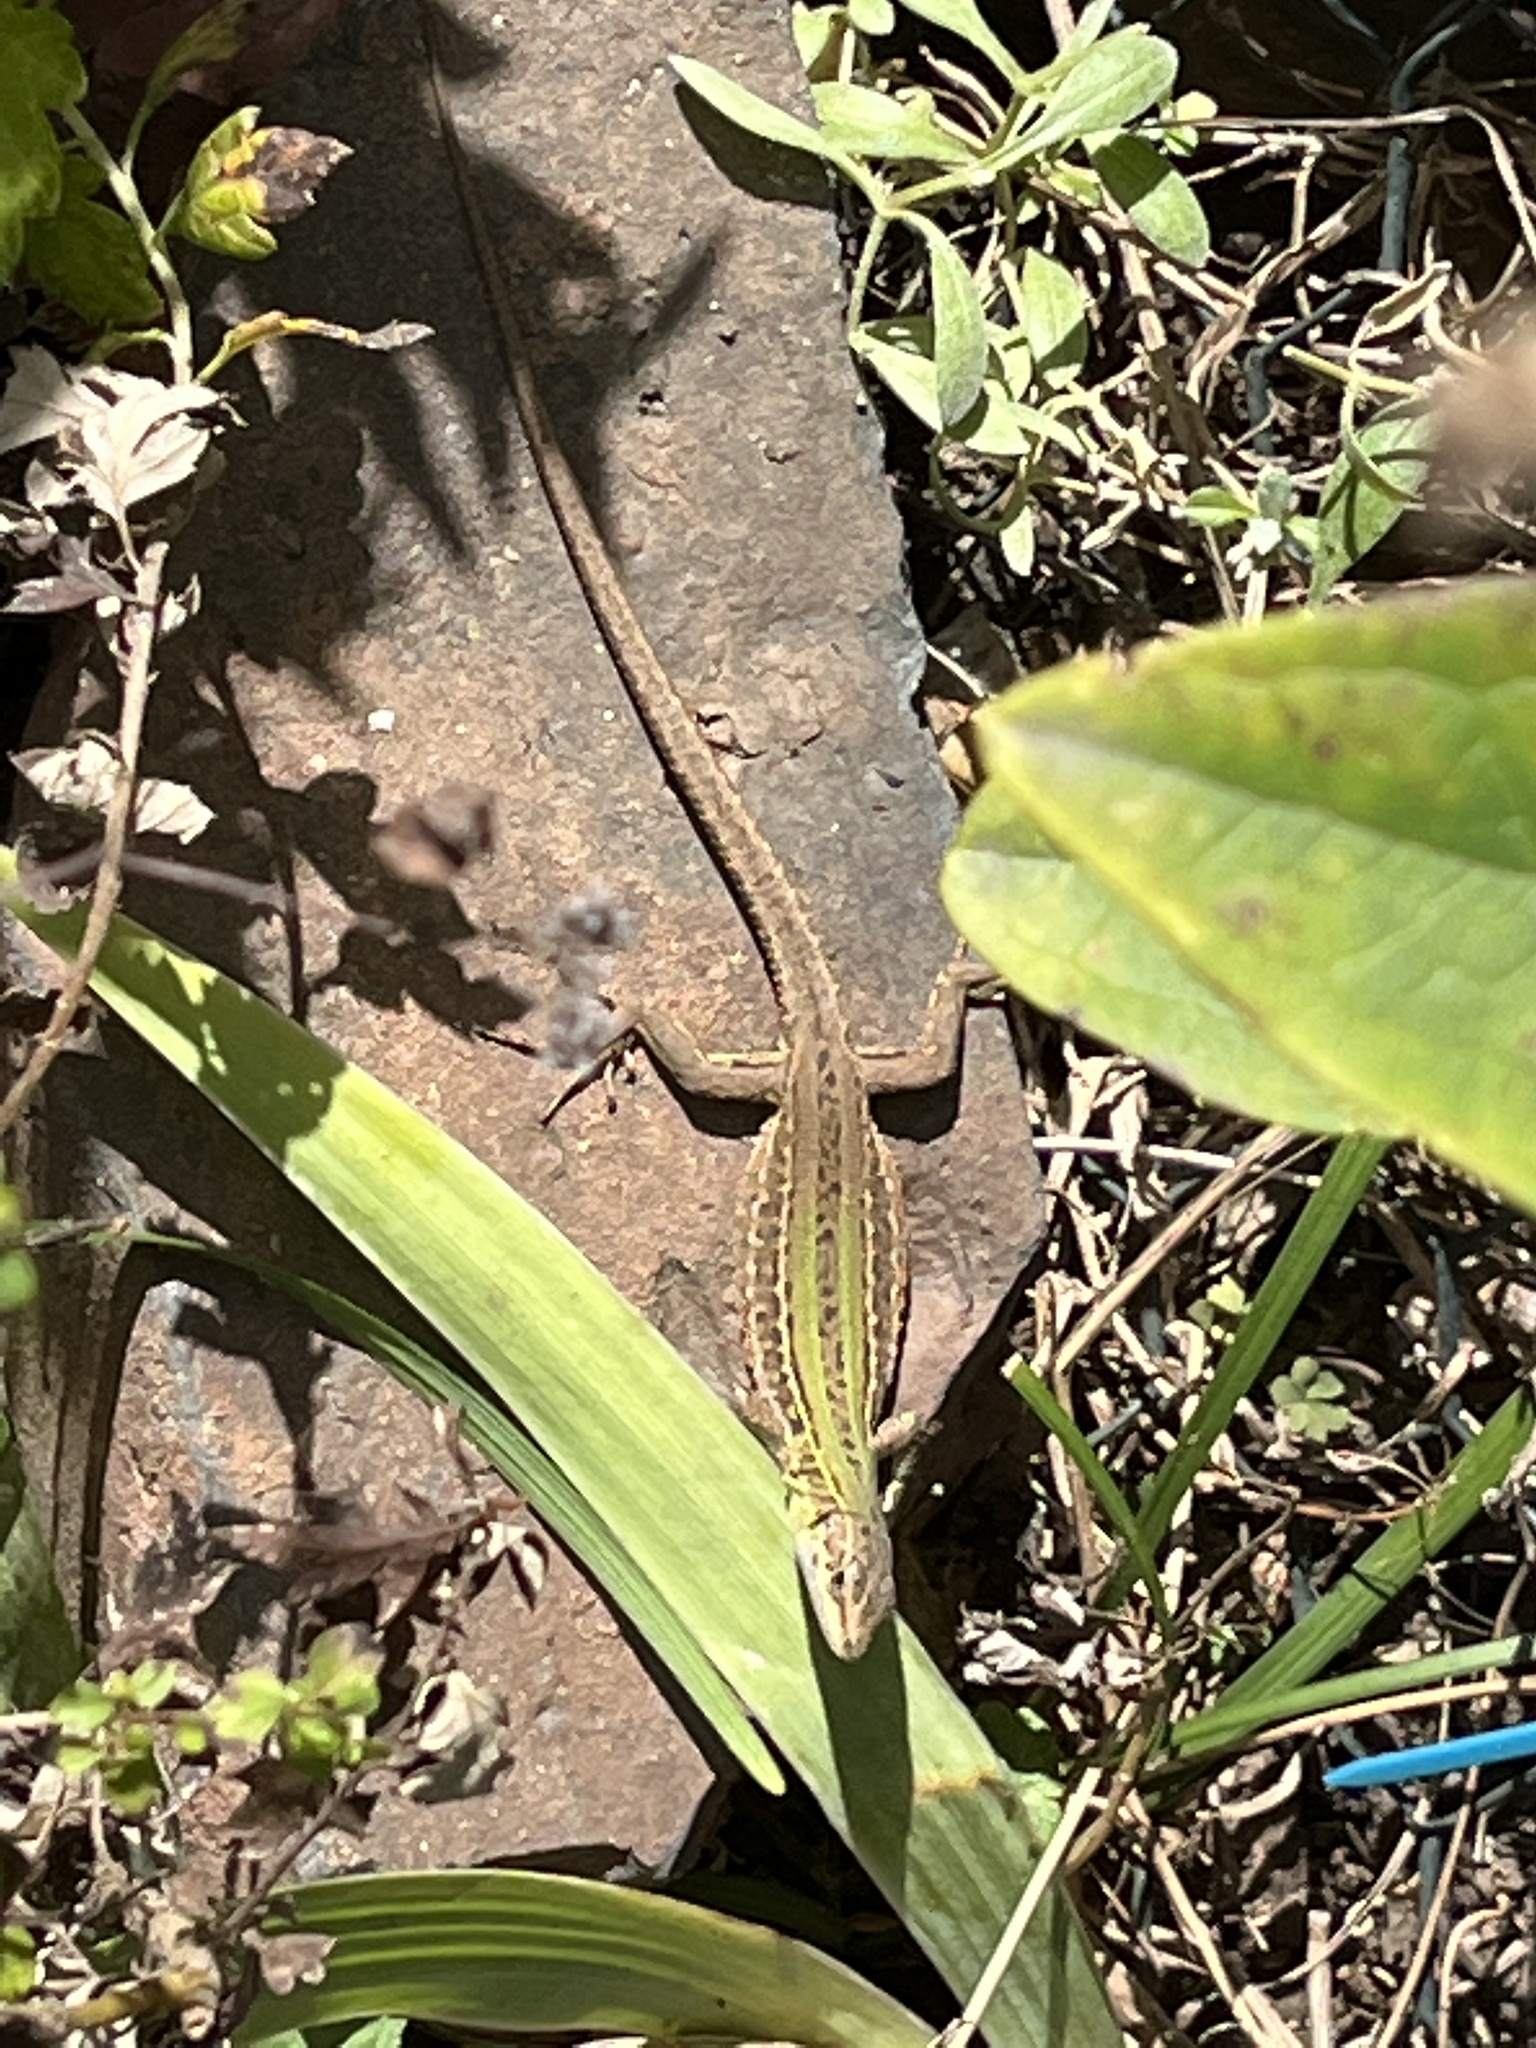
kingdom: Animalia
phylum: Chordata
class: Squamata
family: Lacertidae
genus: Podarcis
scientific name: Podarcis siculus
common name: Italian wall lizard
